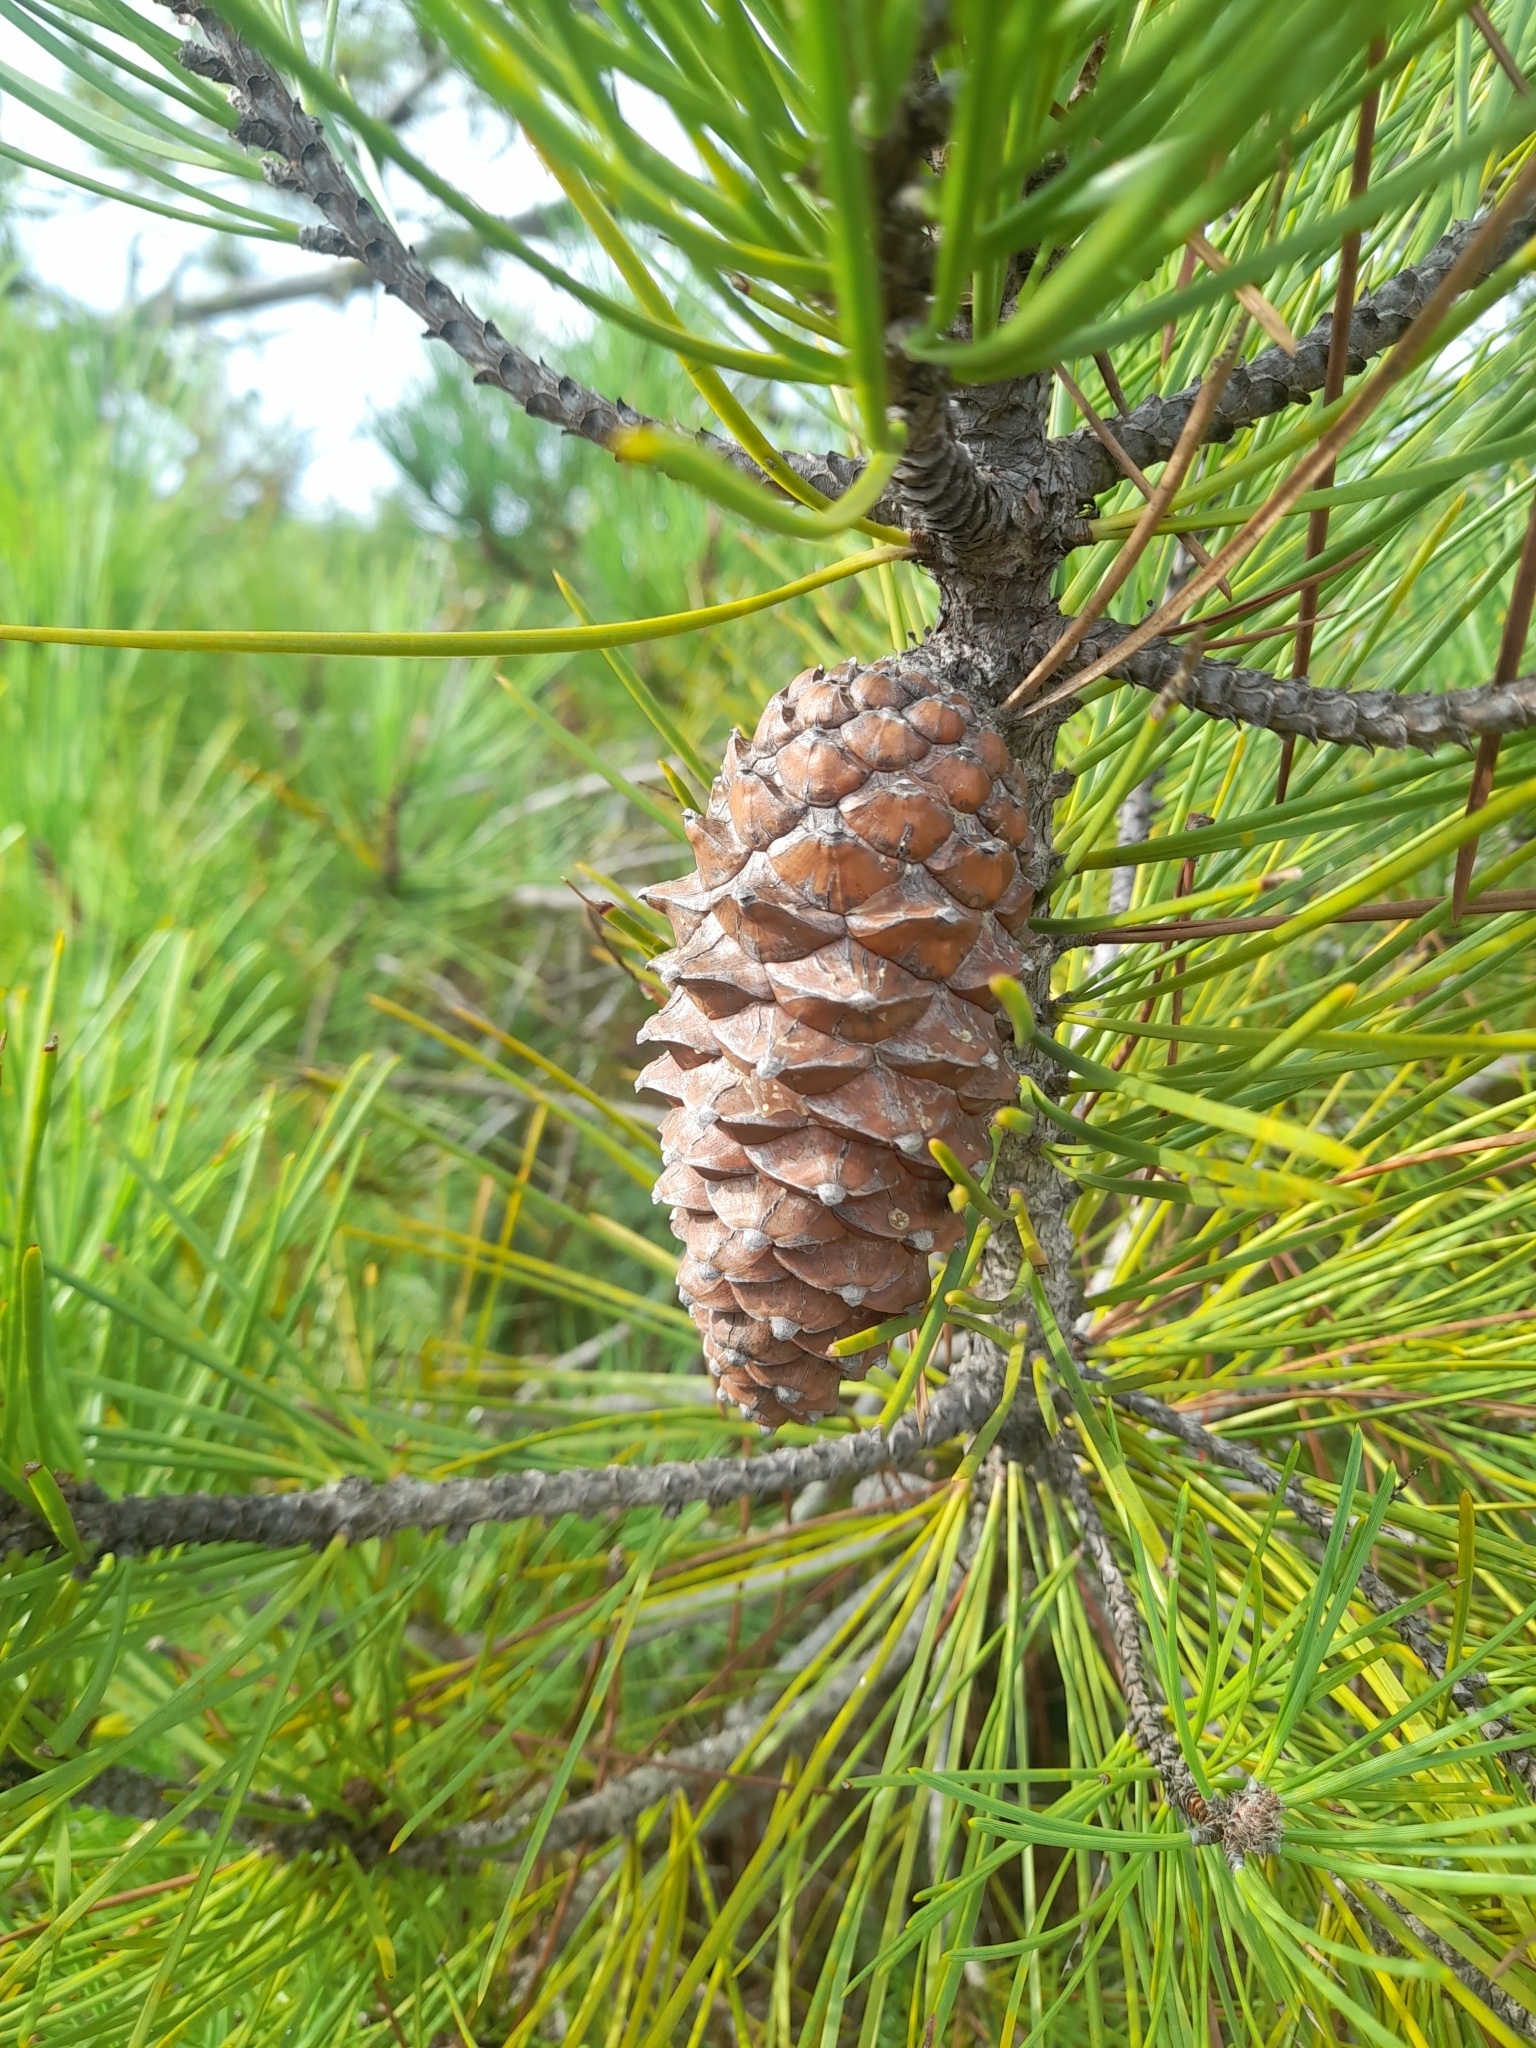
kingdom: Plantae
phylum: Tracheophyta
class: Pinopsida
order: Pinales
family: Pinaceae
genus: Pinus
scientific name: Pinus pinaster
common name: Maritime pine
